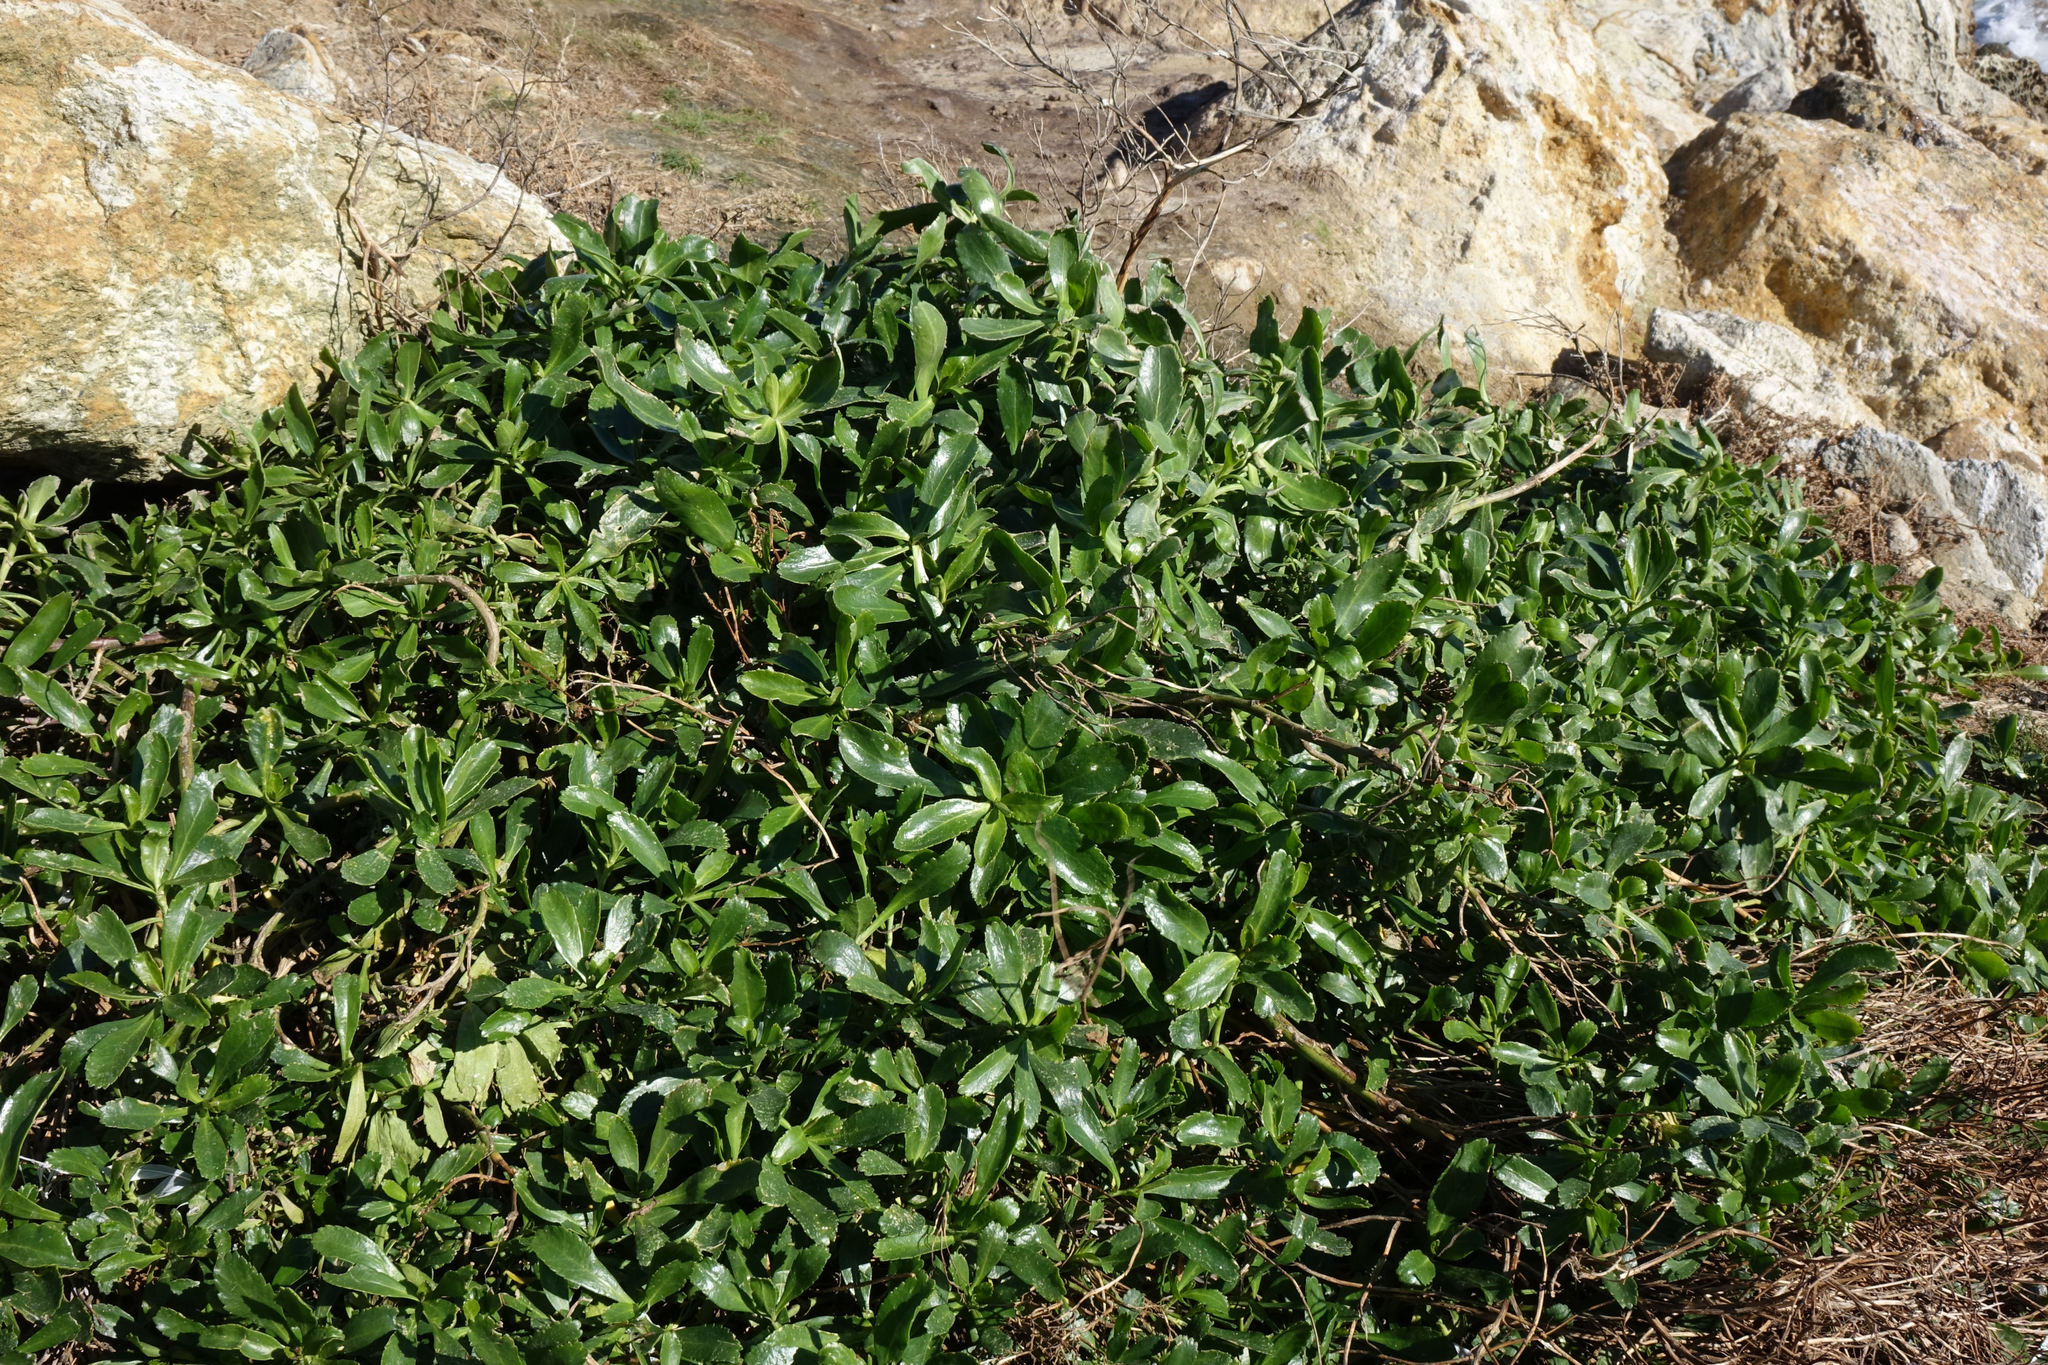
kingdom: Plantae
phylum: Tracheophyta
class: Magnoliopsida
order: Brassicales
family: Brassicaceae
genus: Lepidium
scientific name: Lepidium crassum
